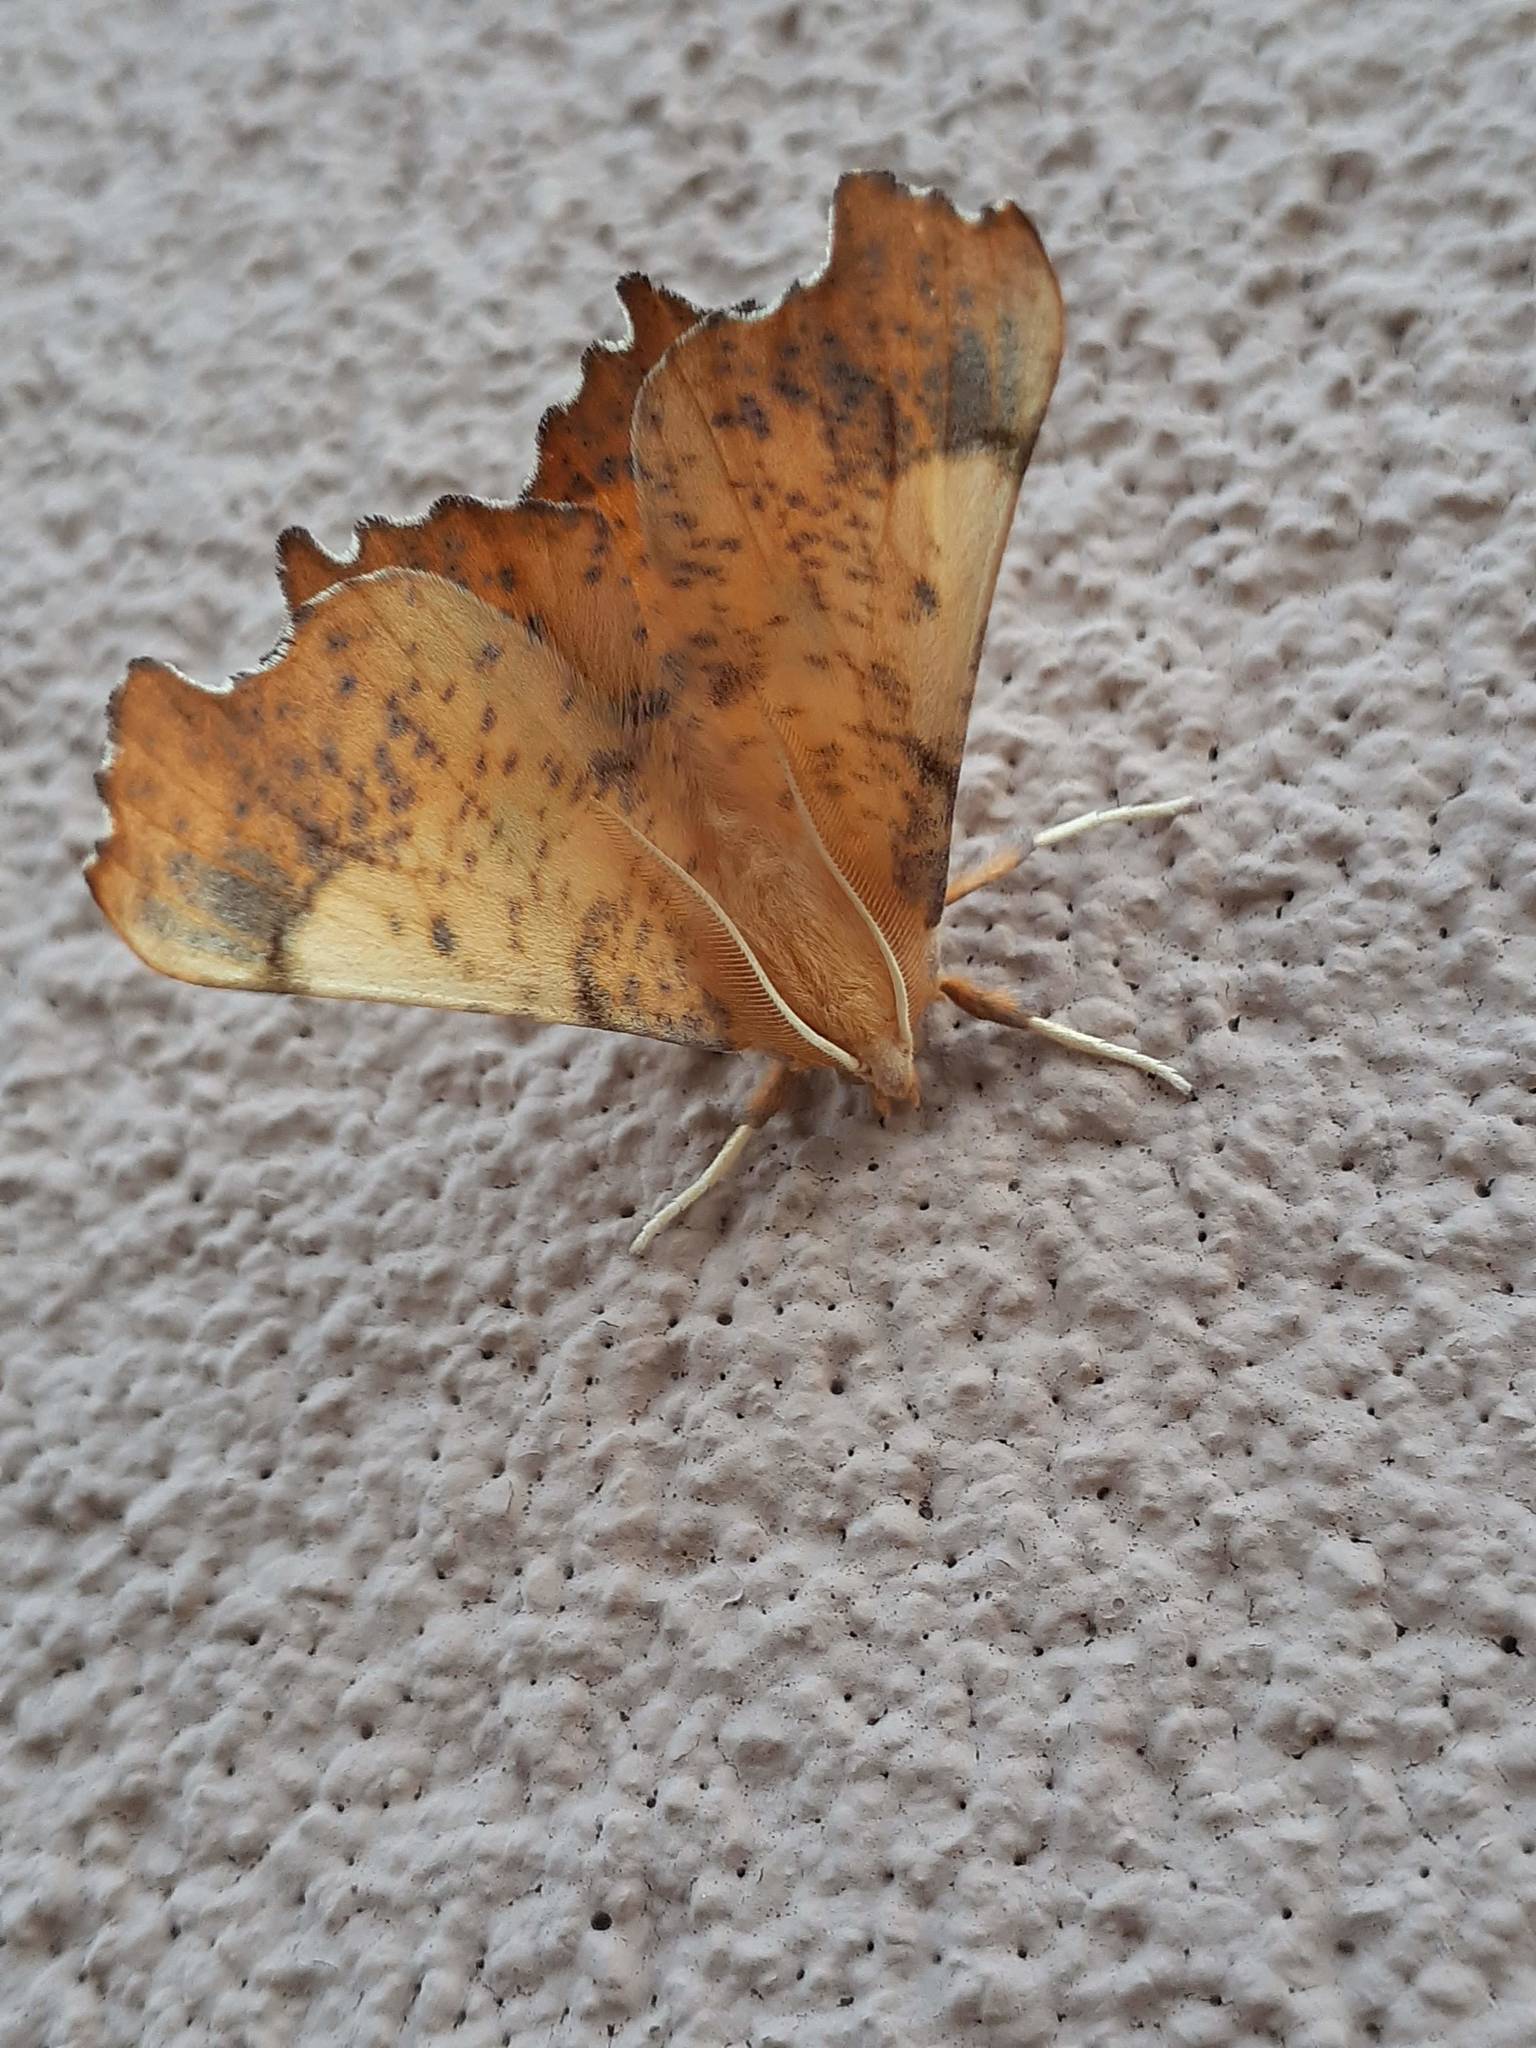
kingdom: Animalia
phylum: Arthropoda
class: Insecta
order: Lepidoptera
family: Geometridae
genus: Ennomos
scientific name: Ennomos magnaria
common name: Maple spanworm
